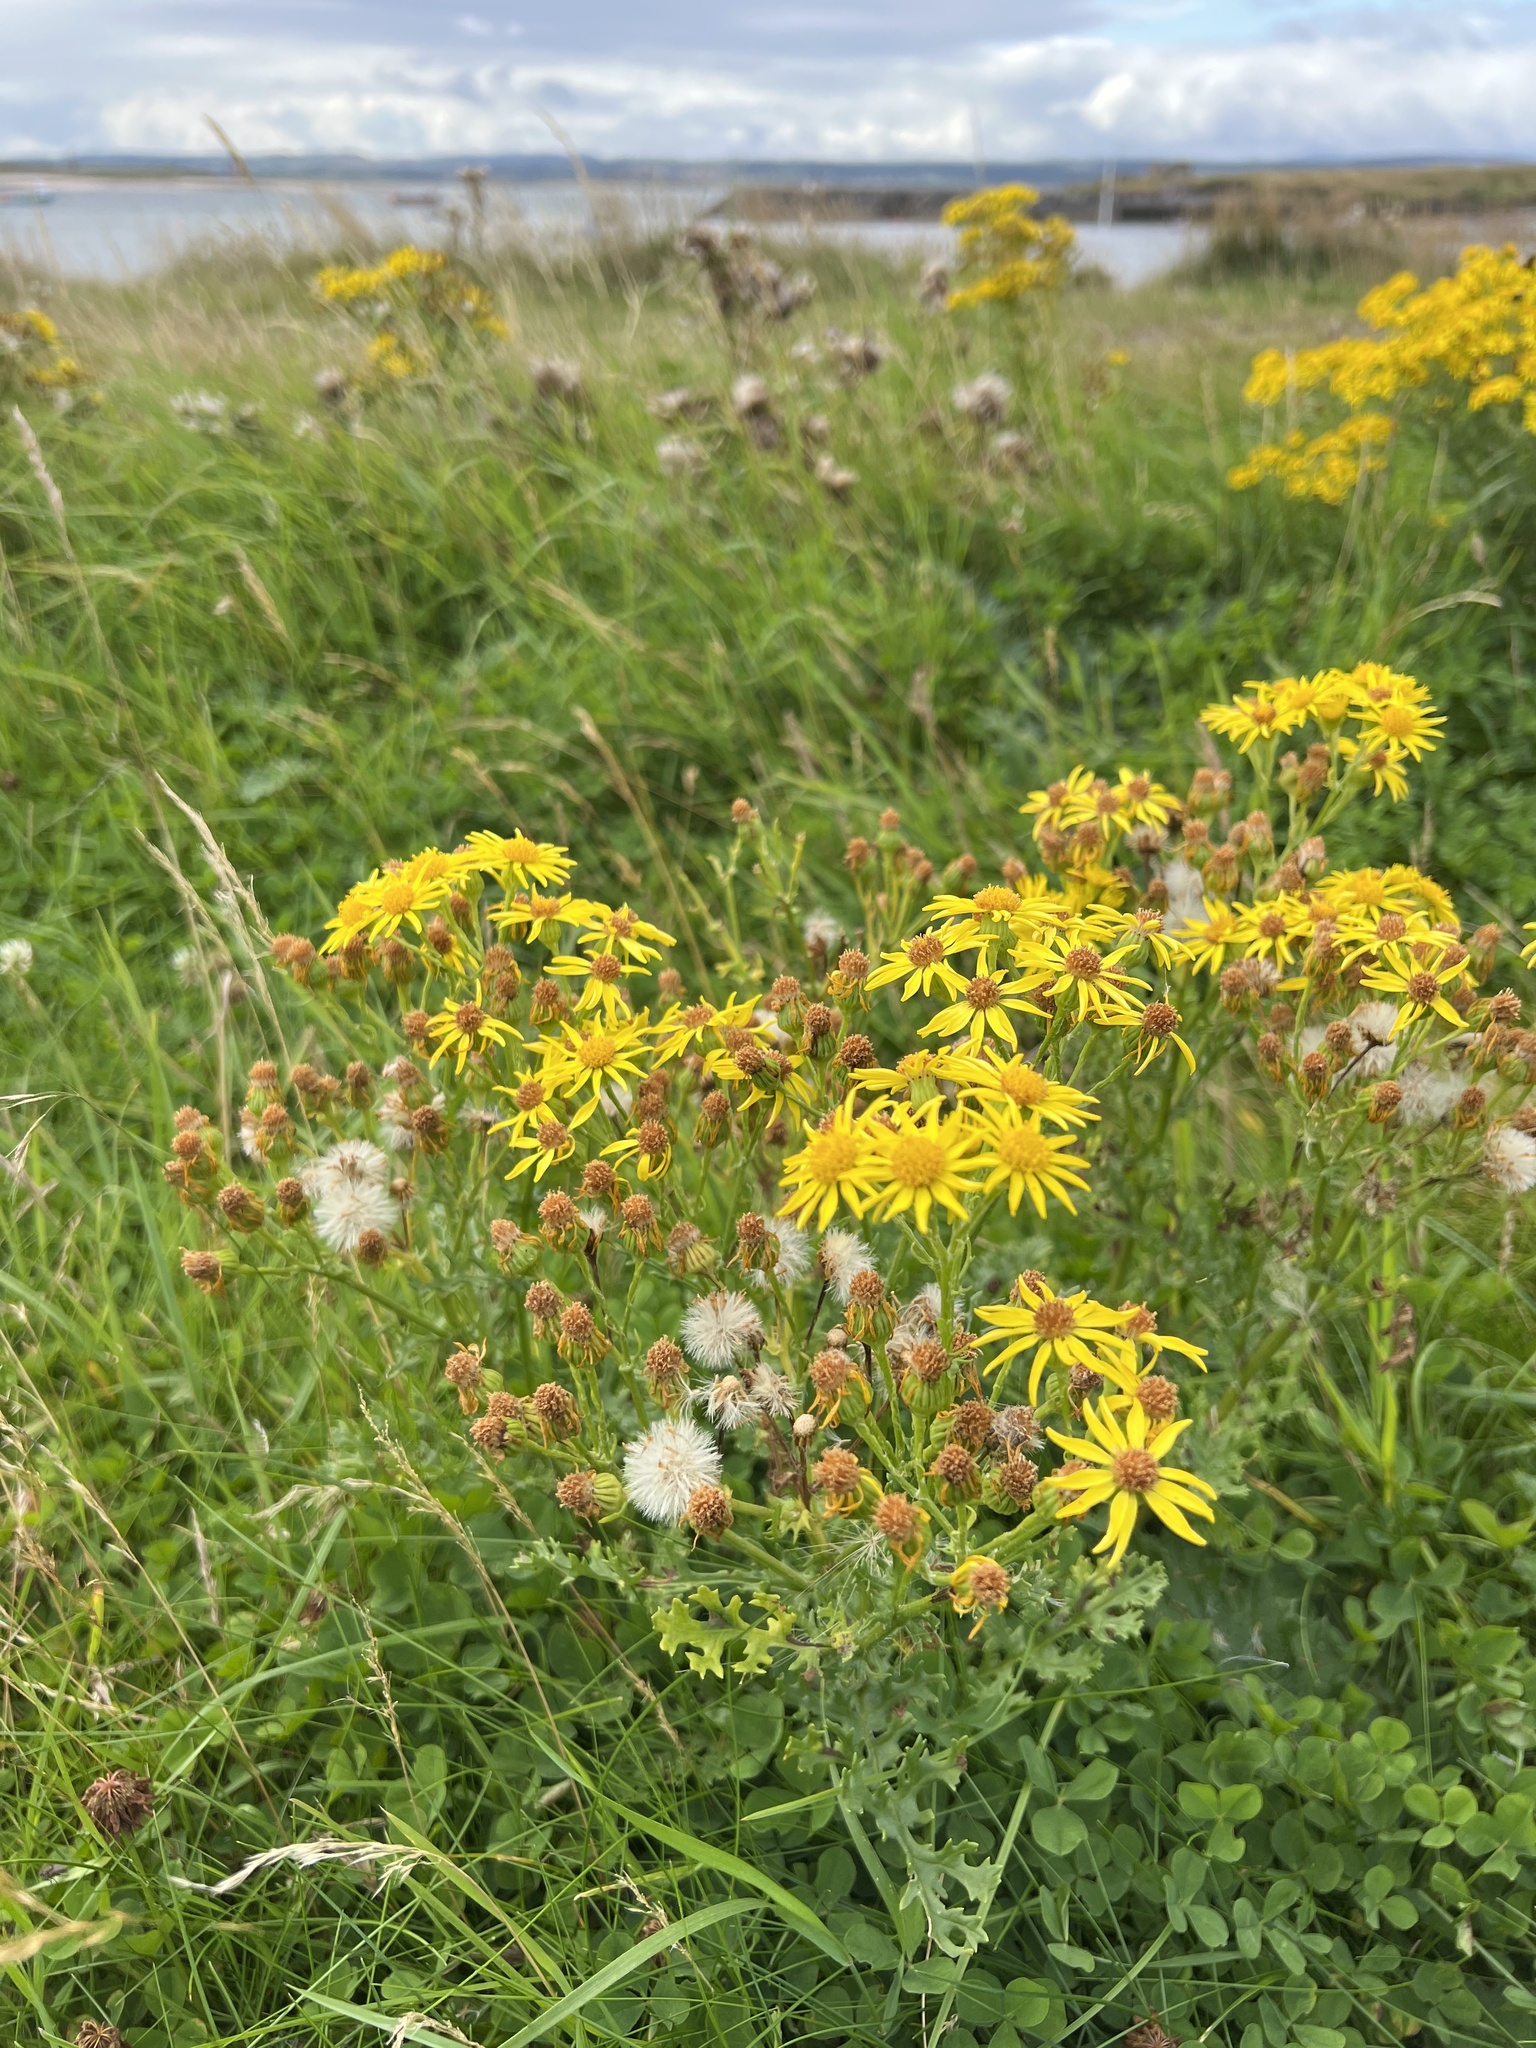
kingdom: Plantae
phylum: Tracheophyta
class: Magnoliopsida
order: Asterales
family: Asteraceae
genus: Jacobaea
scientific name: Jacobaea vulgaris
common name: Stinking willie
